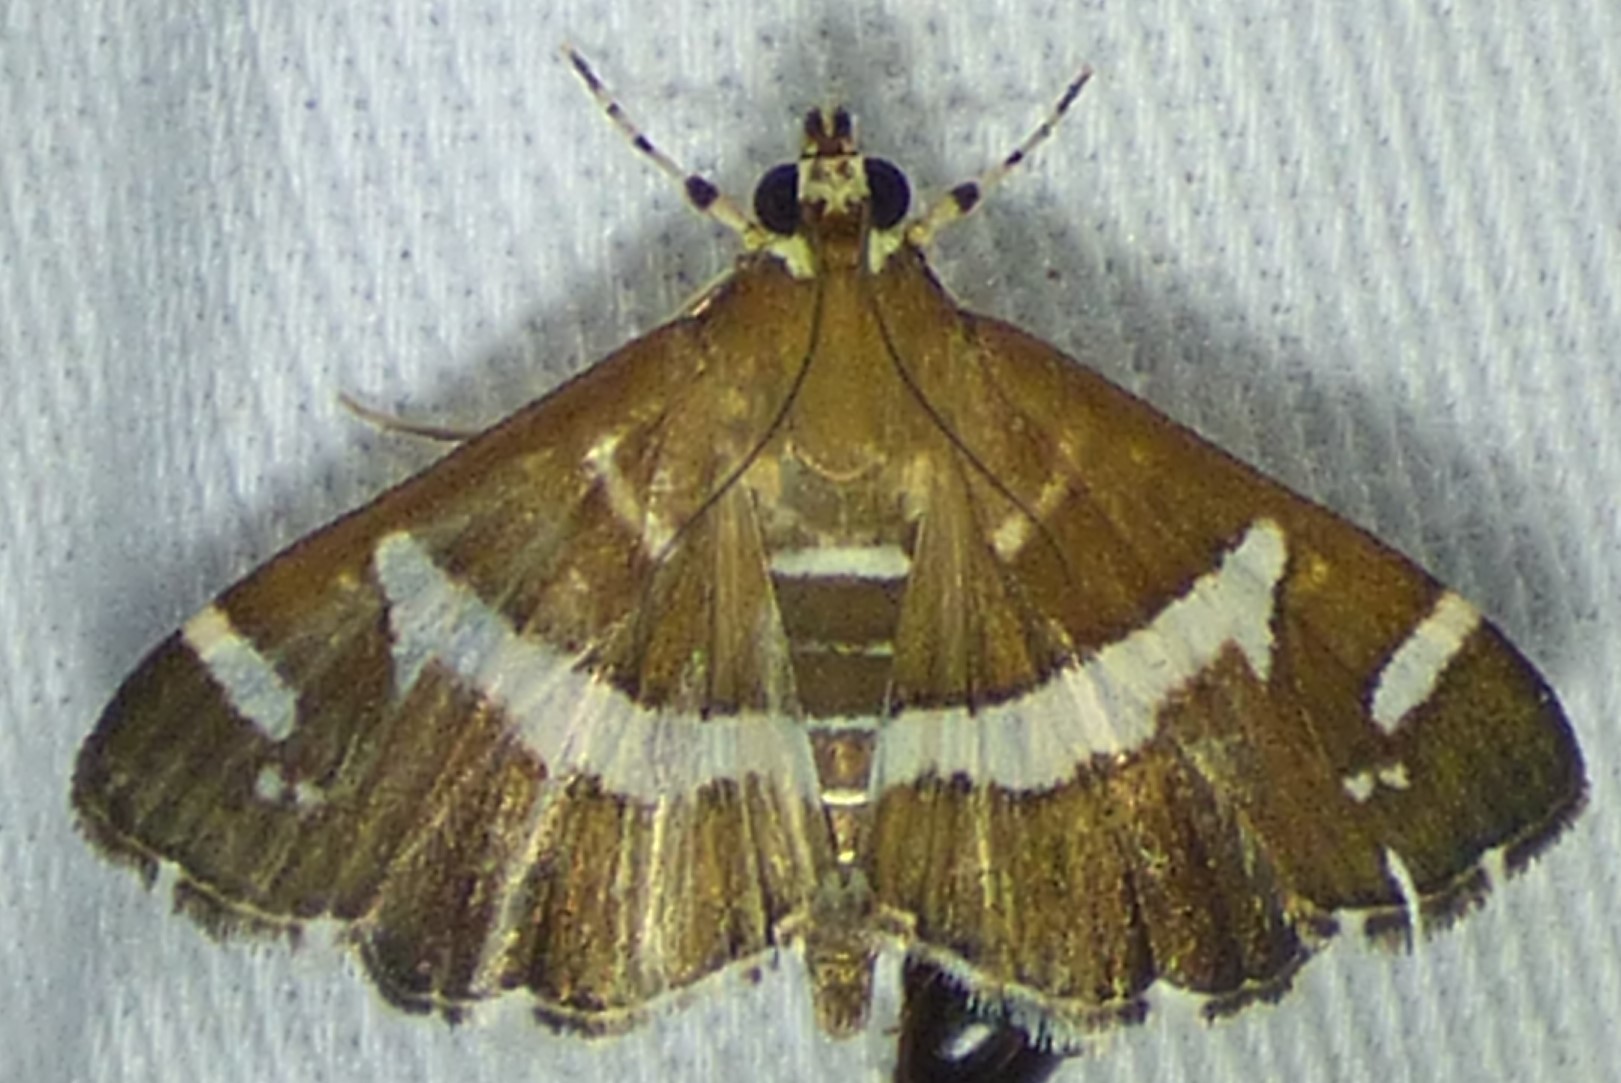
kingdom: Animalia
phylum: Arthropoda
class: Insecta
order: Lepidoptera
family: Crambidae
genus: Spoladea
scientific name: Spoladea recurvalis
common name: Beet webworm moth
